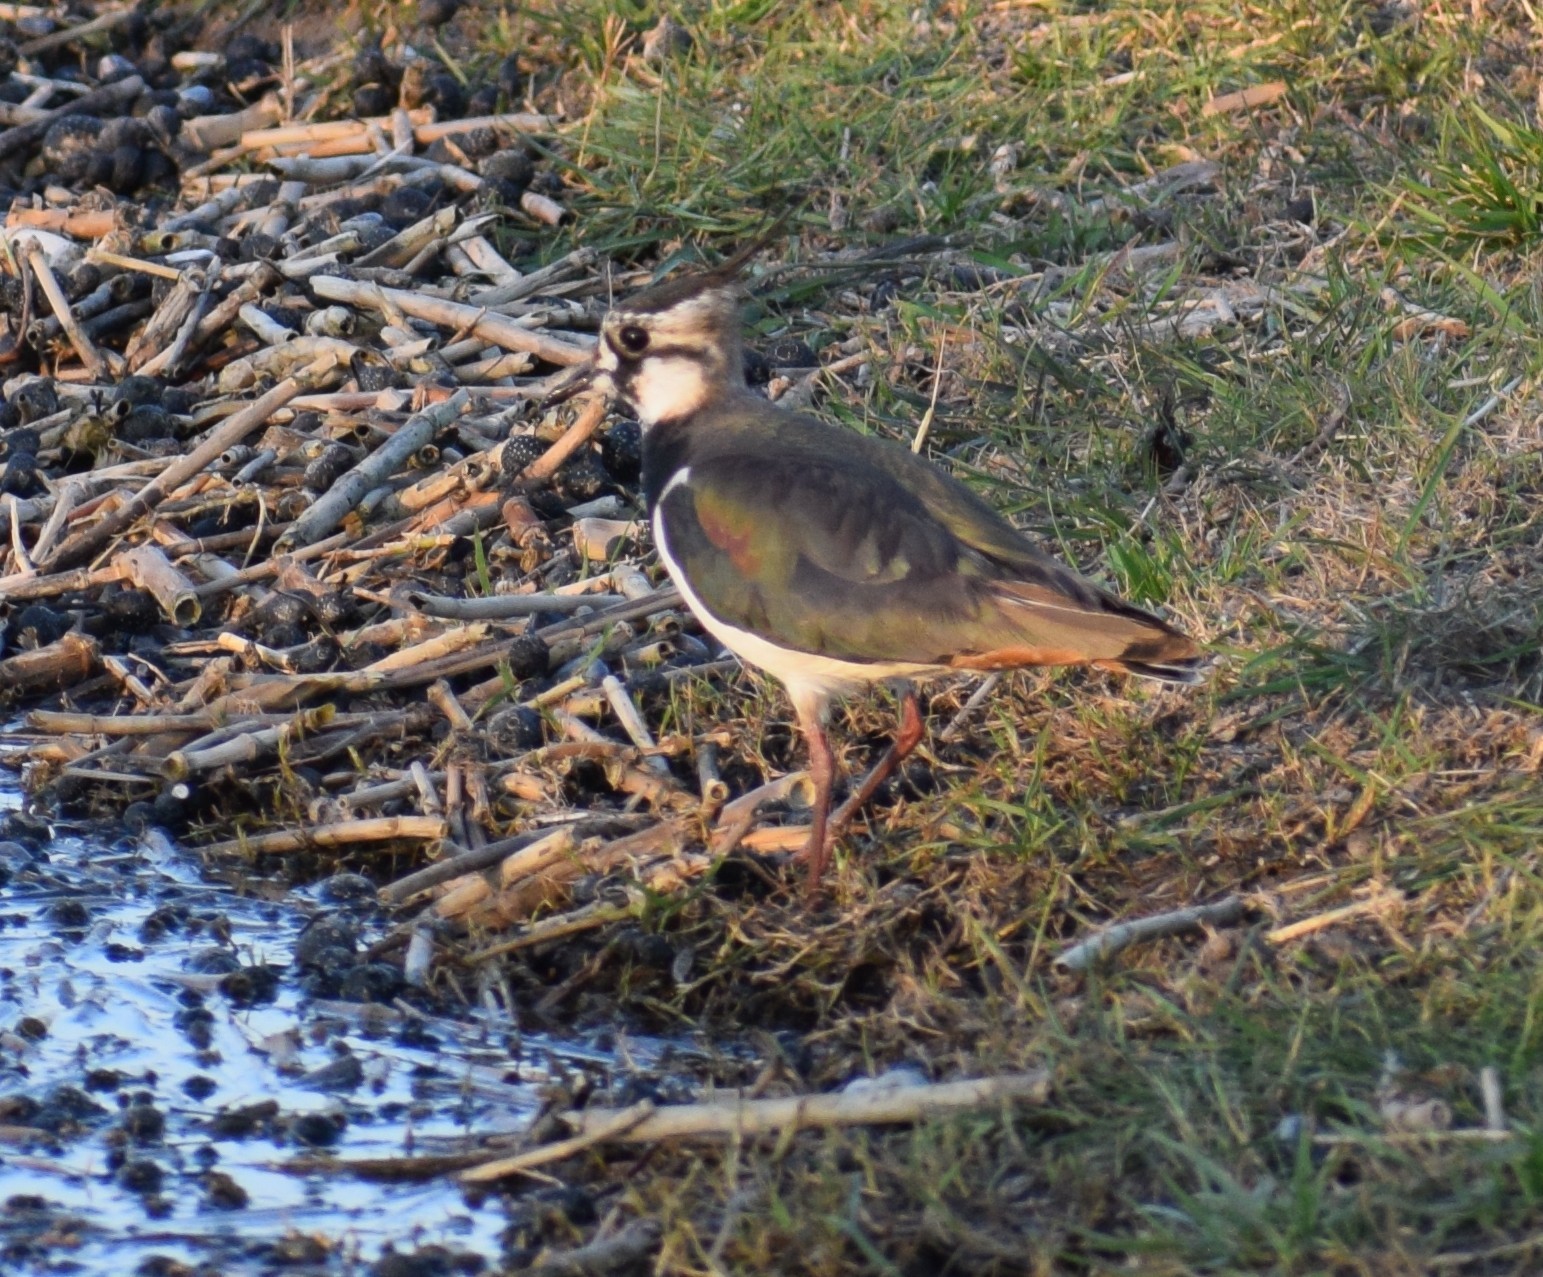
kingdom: Animalia
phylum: Chordata
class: Aves
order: Charadriiformes
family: Charadriidae
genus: Vanellus
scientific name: Vanellus vanellus
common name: Northern lapwing
